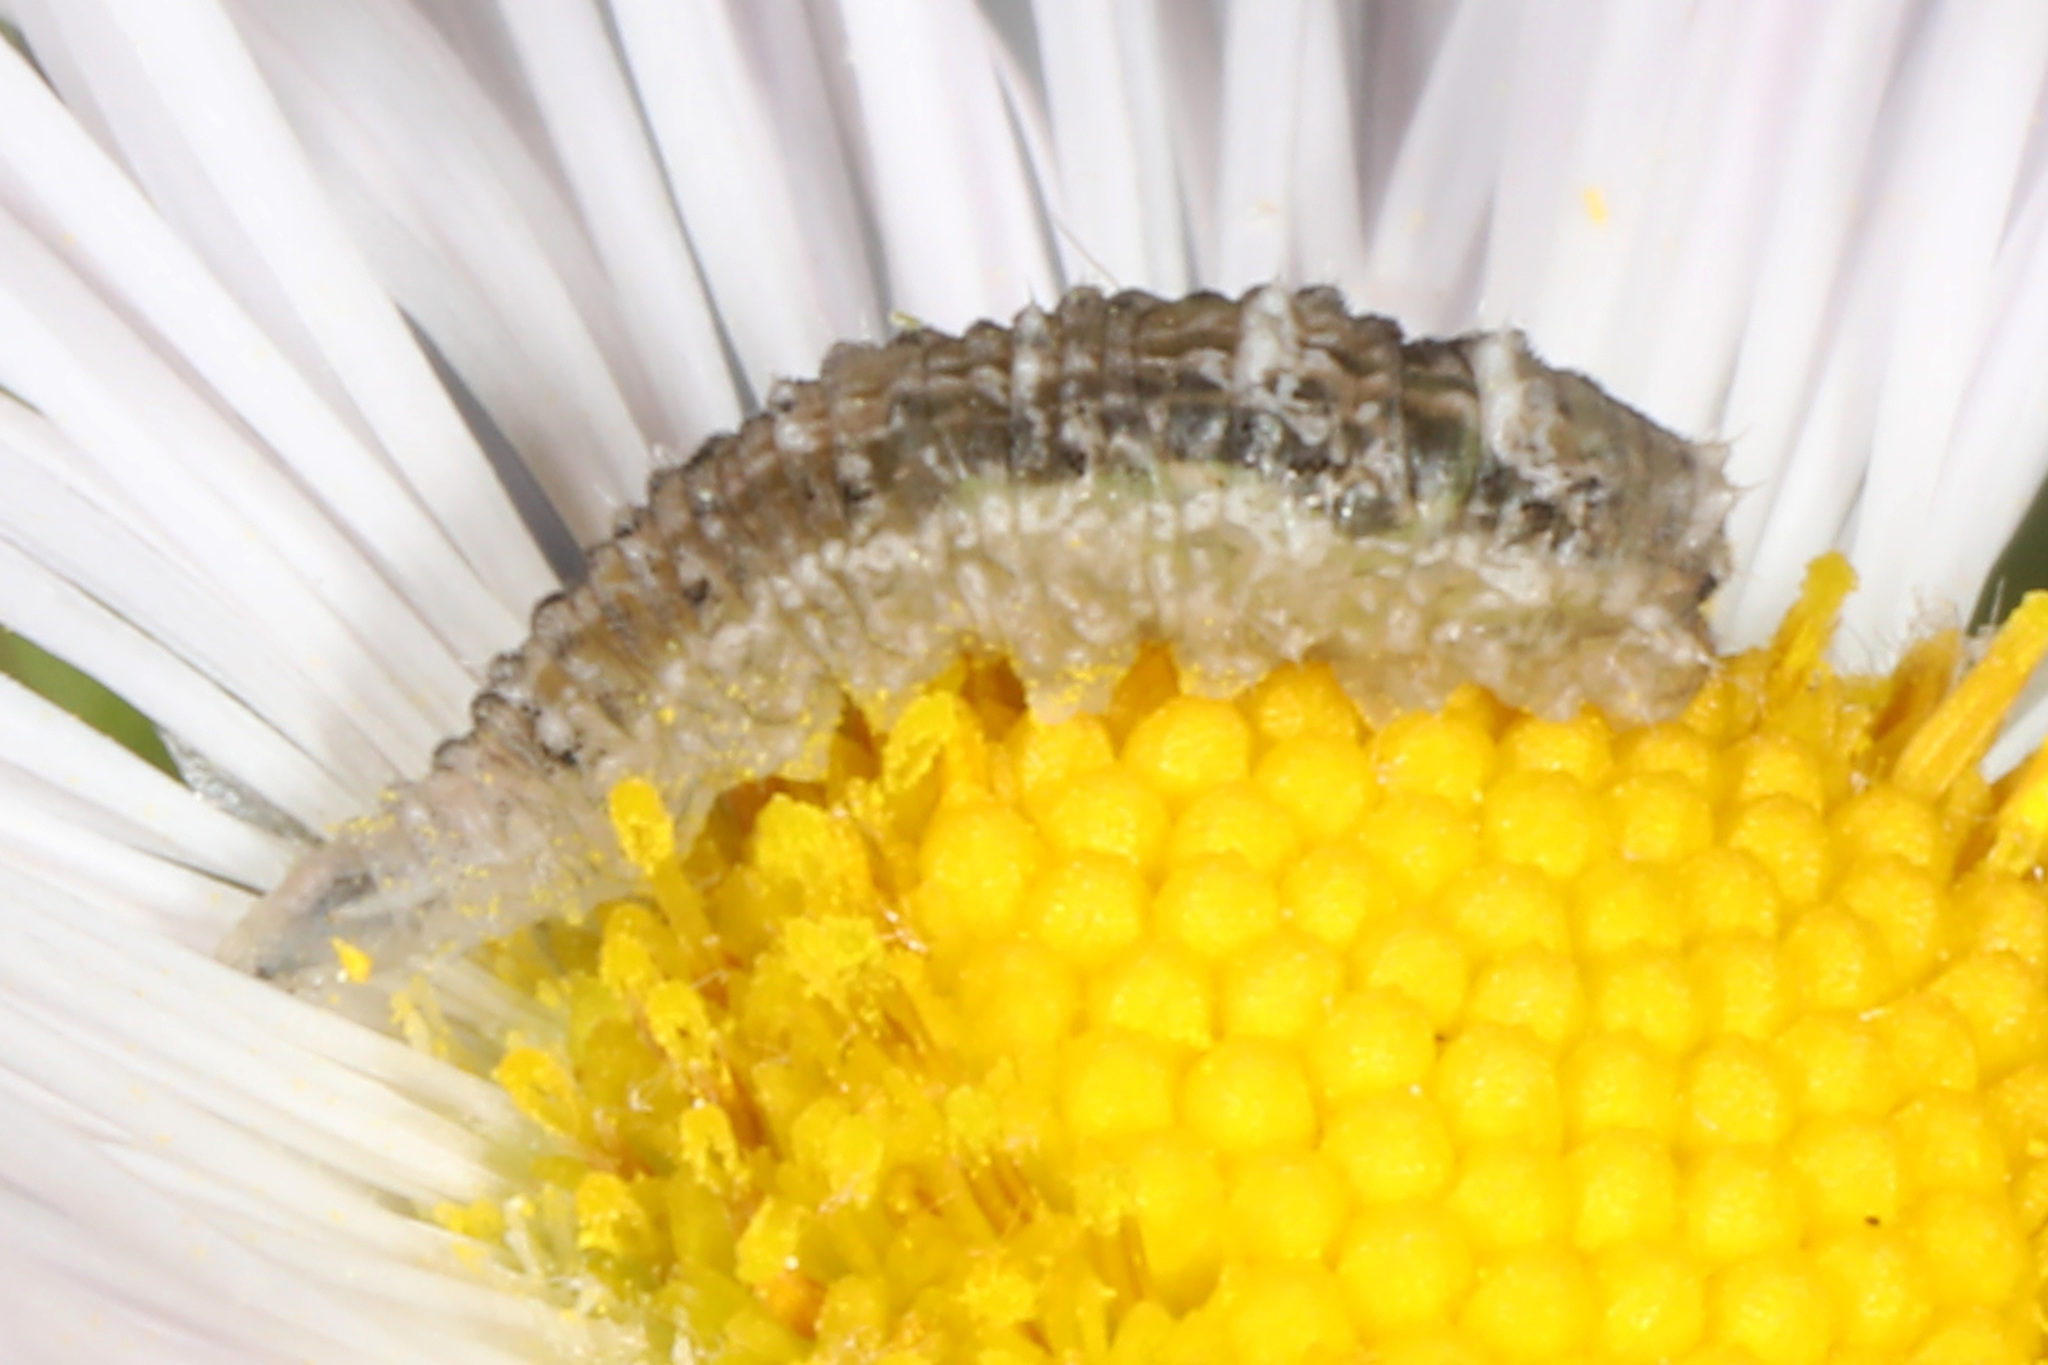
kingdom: Animalia
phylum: Arthropoda
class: Insecta
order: Diptera
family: Syrphidae
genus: Eupeodes
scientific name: Eupeodes americanus
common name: Long-tailed aphideater
